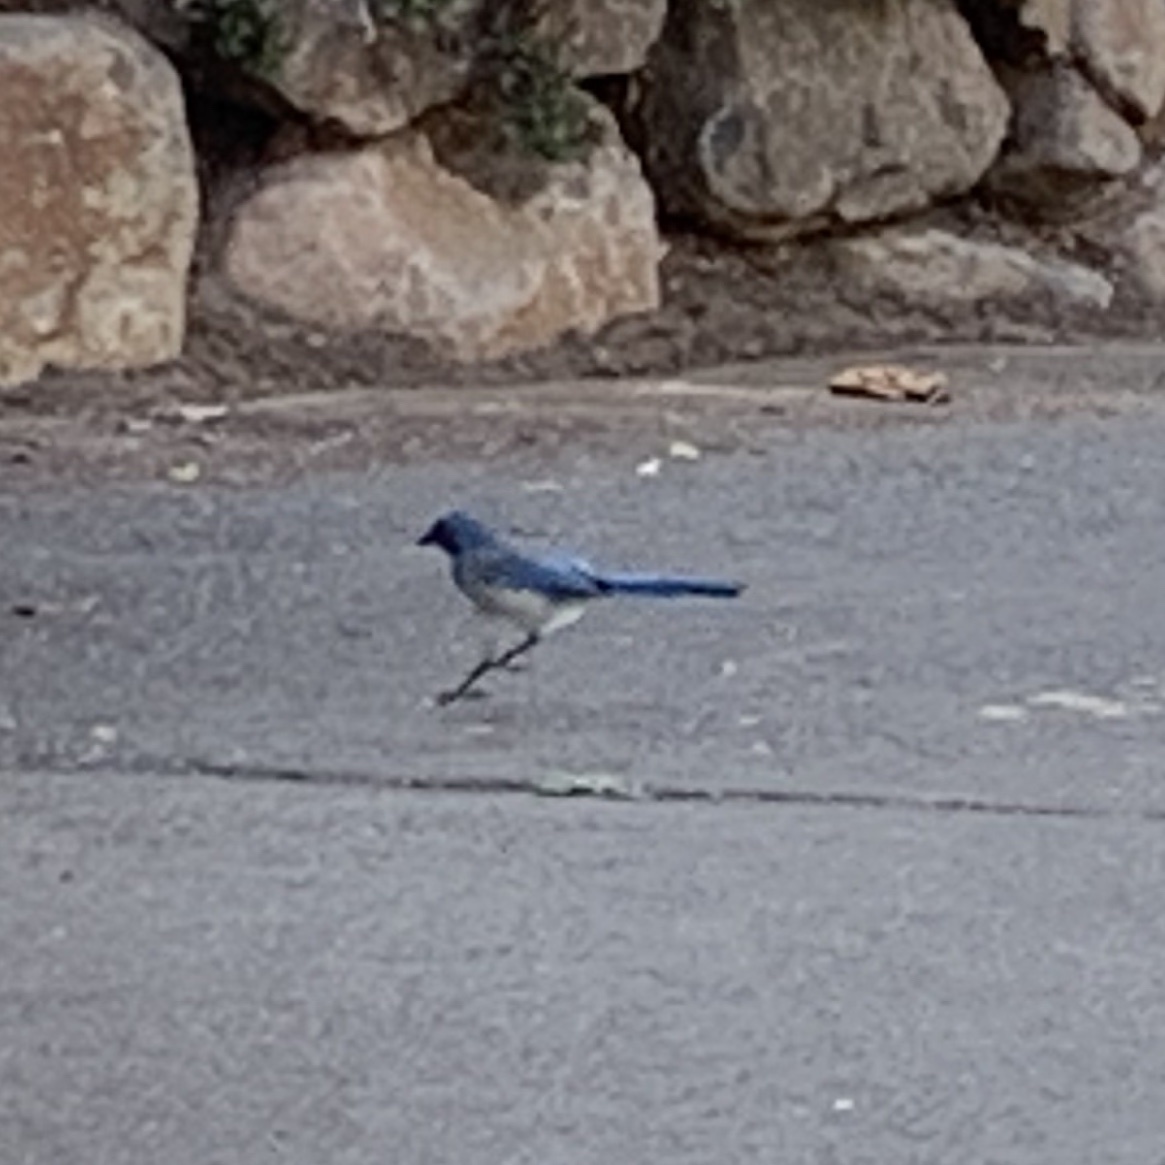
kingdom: Animalia
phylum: Chordata
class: Aves
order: Passeriformes
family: Corvidae
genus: Aphelocoma
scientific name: Aphelocoma californica
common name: California scrub-jay
